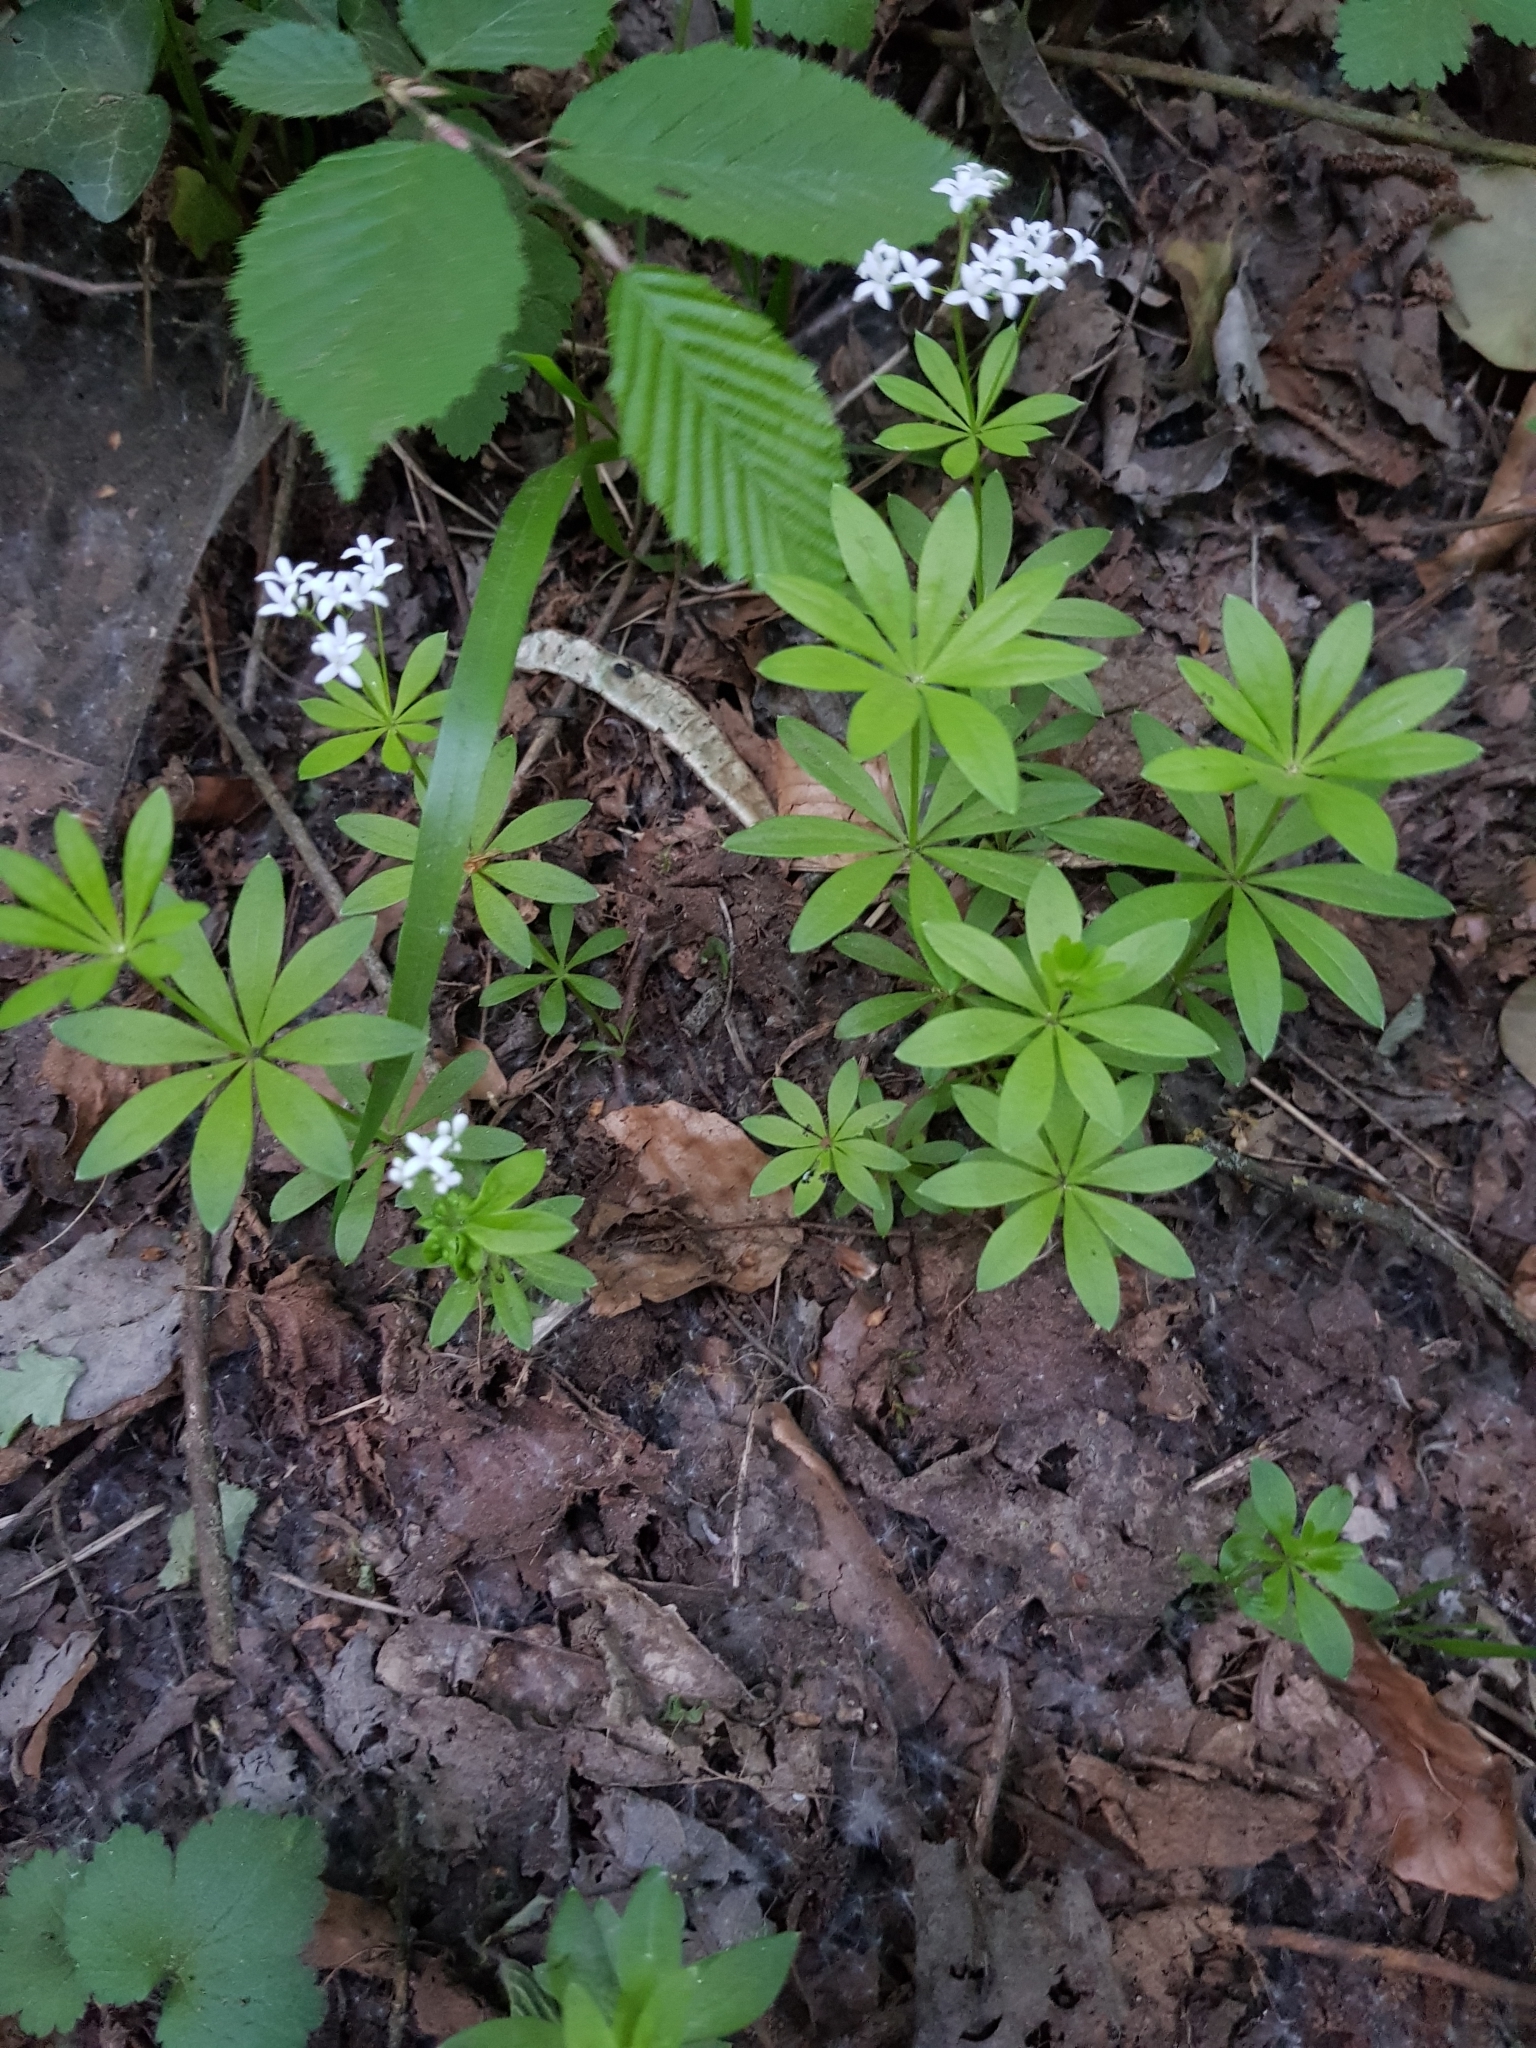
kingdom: Plantae
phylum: Tracheophyta
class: Magnoliopsida
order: Gentianales
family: Rubiaceae
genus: Galium
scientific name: Galium odoratum
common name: Sweet woodruff
